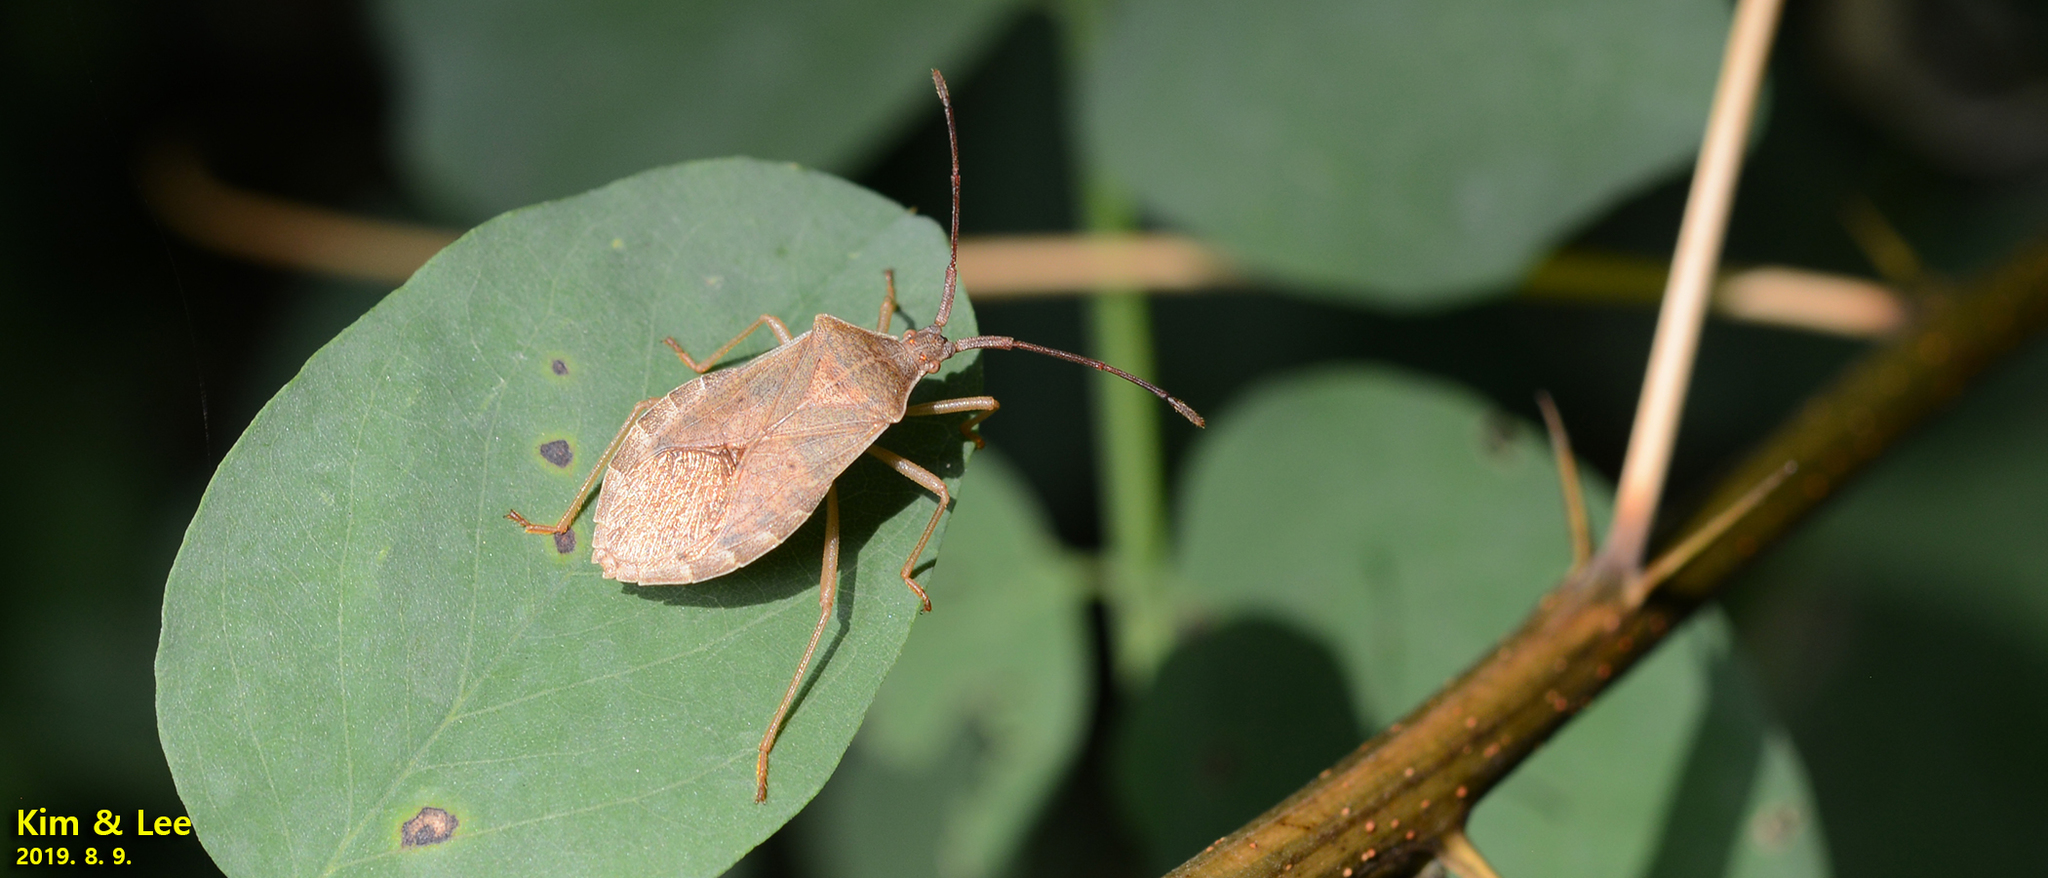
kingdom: Animalia
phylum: Arthropoda
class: Insecta
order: Hemiptera
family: Coreidae
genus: Homoeocerus
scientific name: Homoeocerus dilatatus
